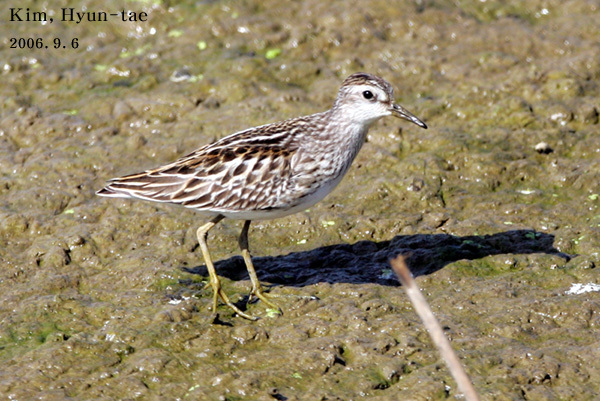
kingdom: Animalia
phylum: Chordata
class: Aves
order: Charadriiformes
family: Scolopacidae
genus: Calidris
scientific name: Calidris subminuta
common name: Long-toed stint
